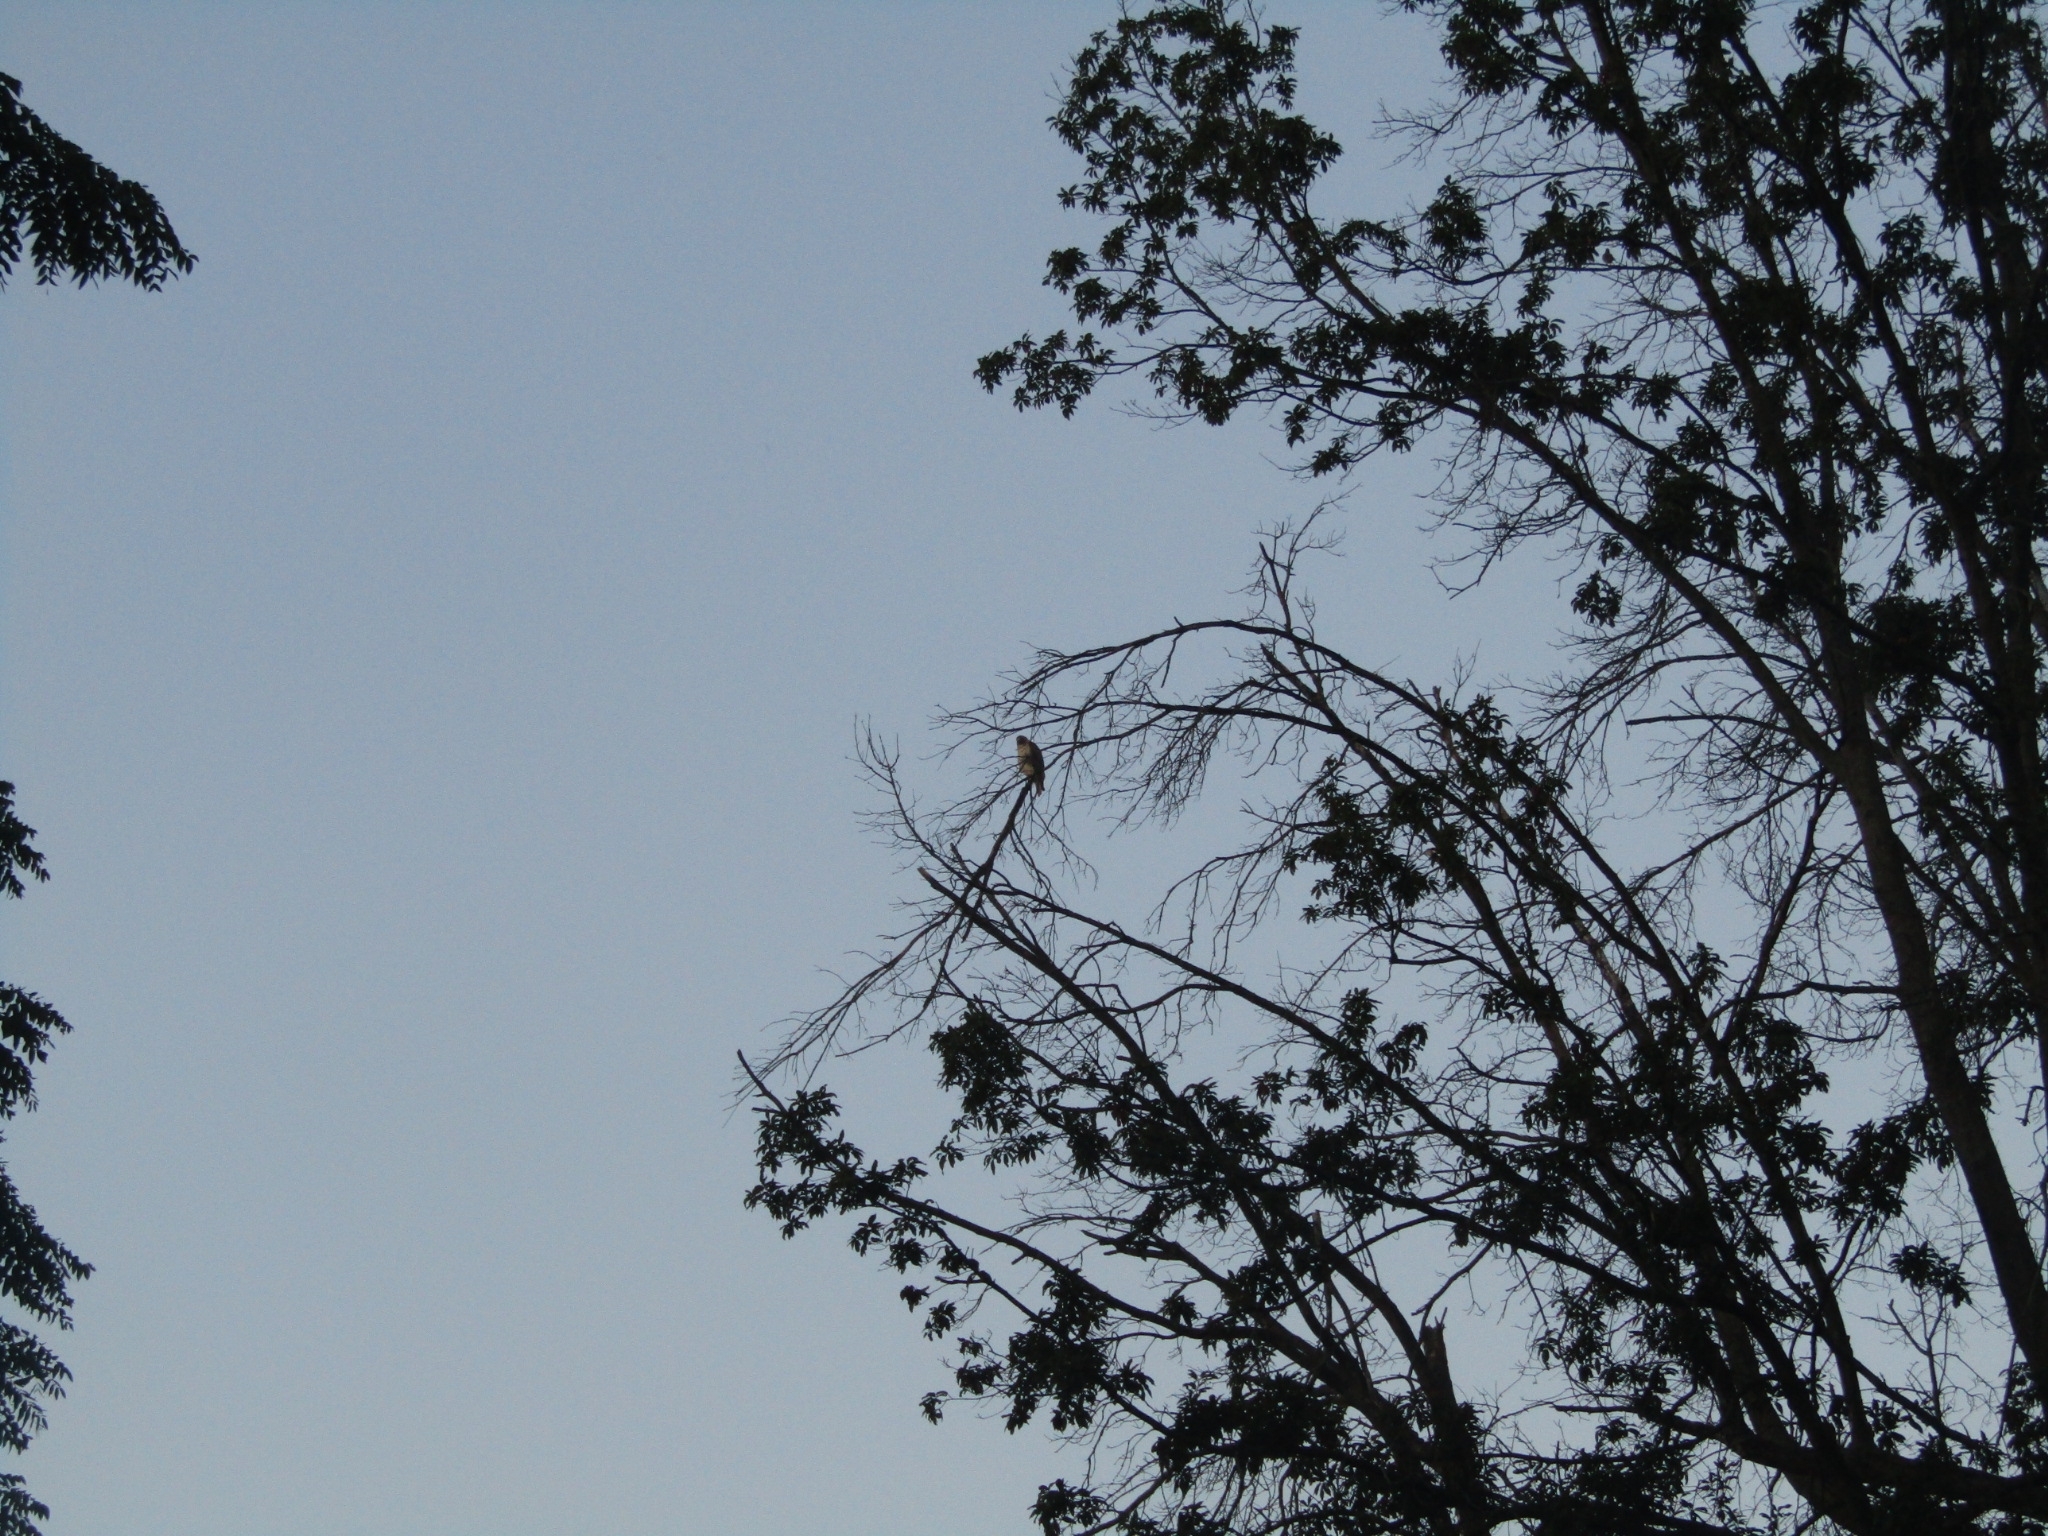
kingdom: Animalia
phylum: Chordata
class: Aves
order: Accipitriformes
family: Accipitridae
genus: Buteo
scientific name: Buteo jamaicensis
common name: Red-tailed hawk
